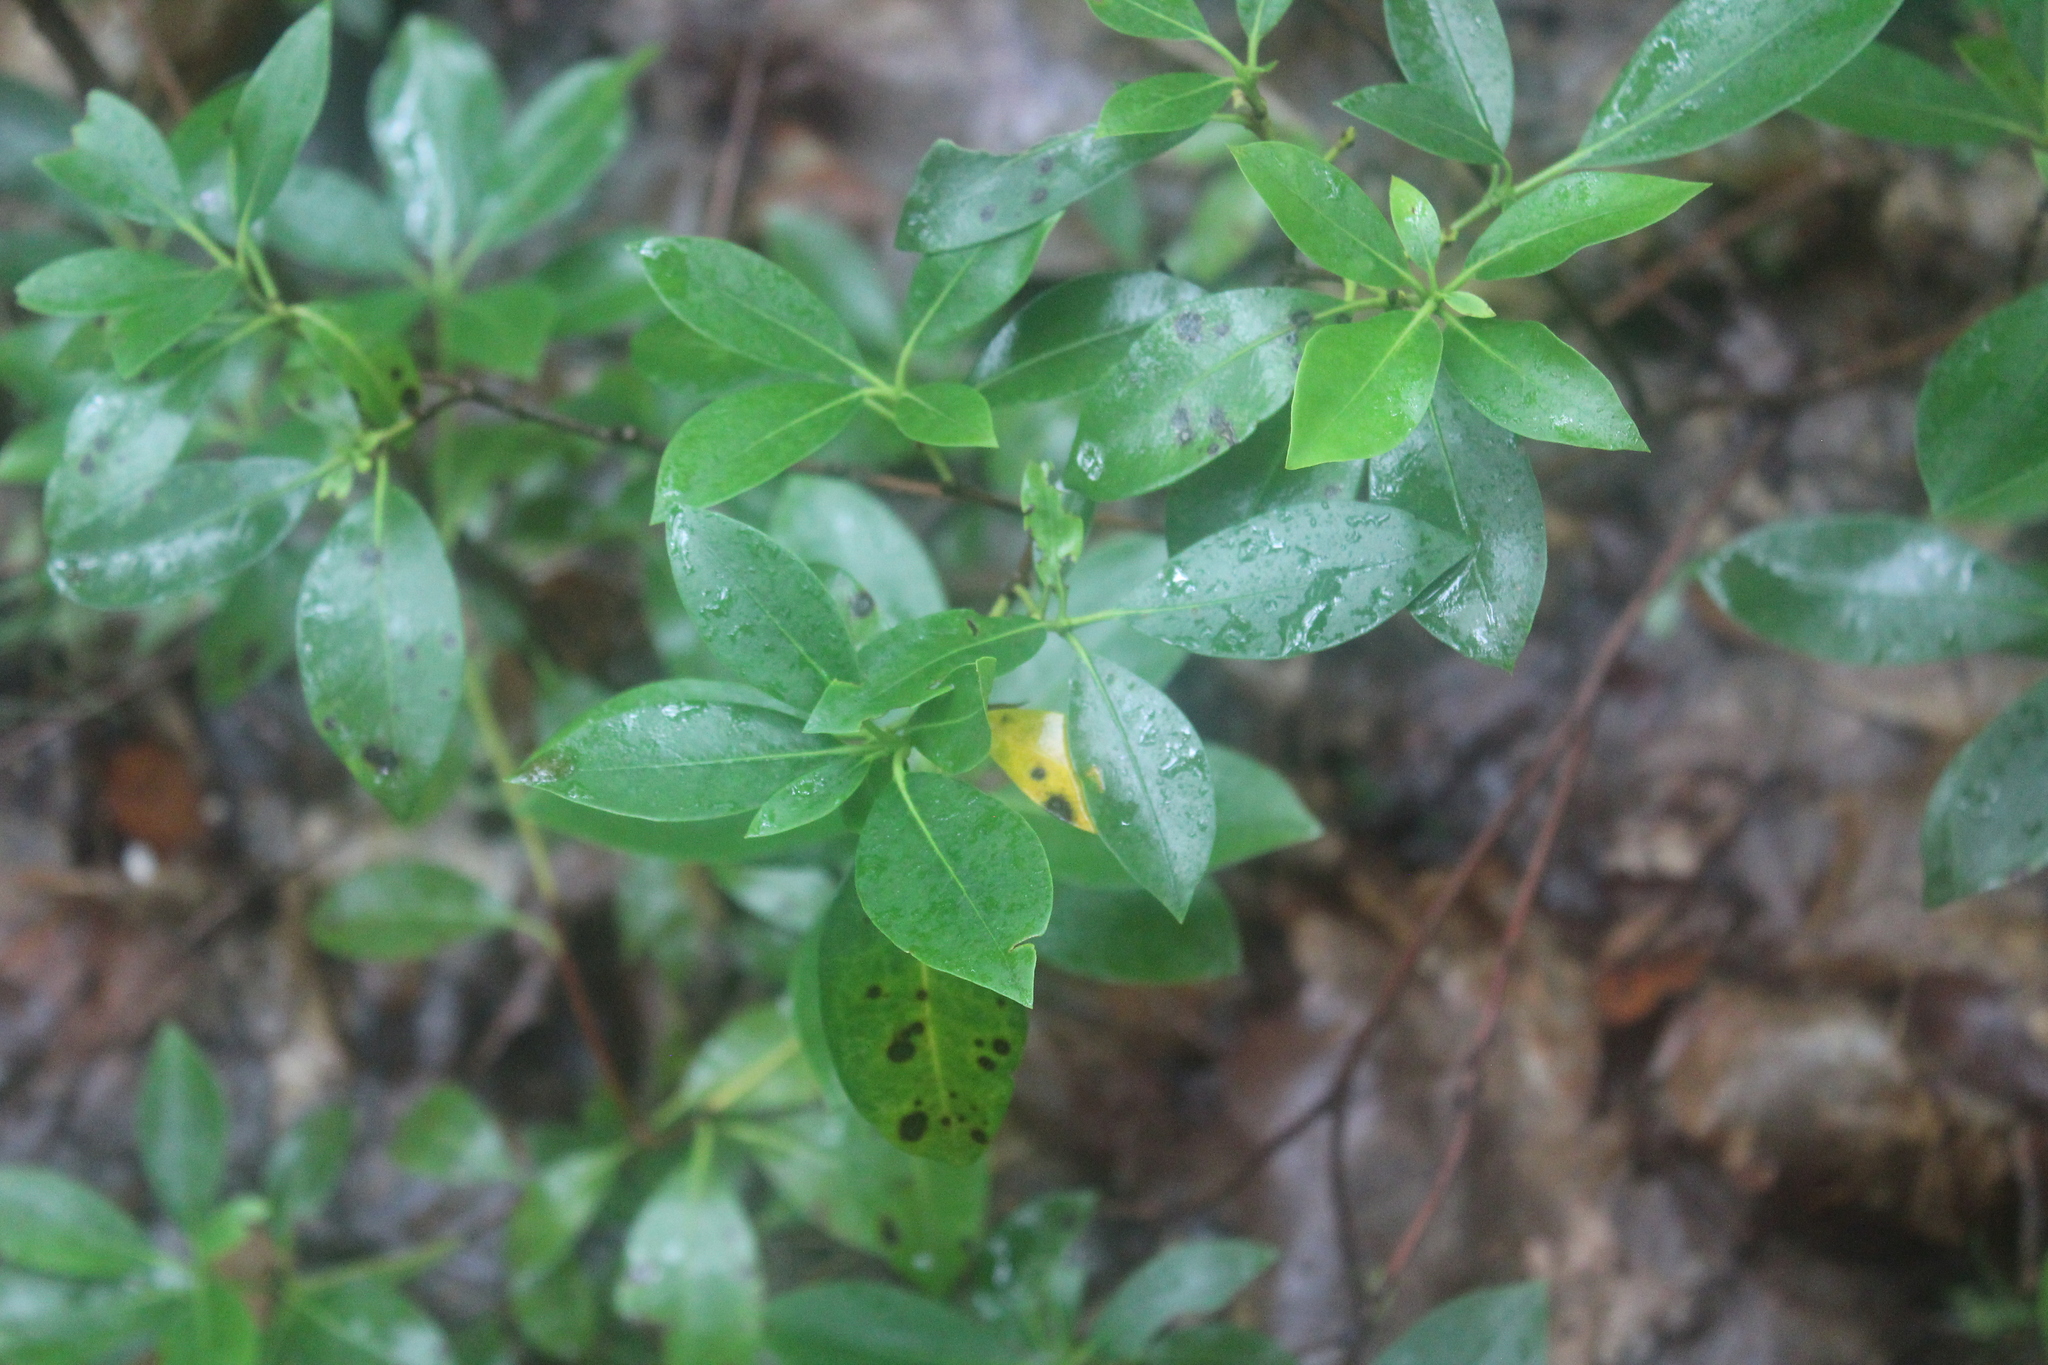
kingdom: Plantae
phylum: Tracheophyta
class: Magnoliopsida
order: Ericales
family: Ericaceae
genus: Kalmia
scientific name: Kalmia latifolia
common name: Mountain-laurel
